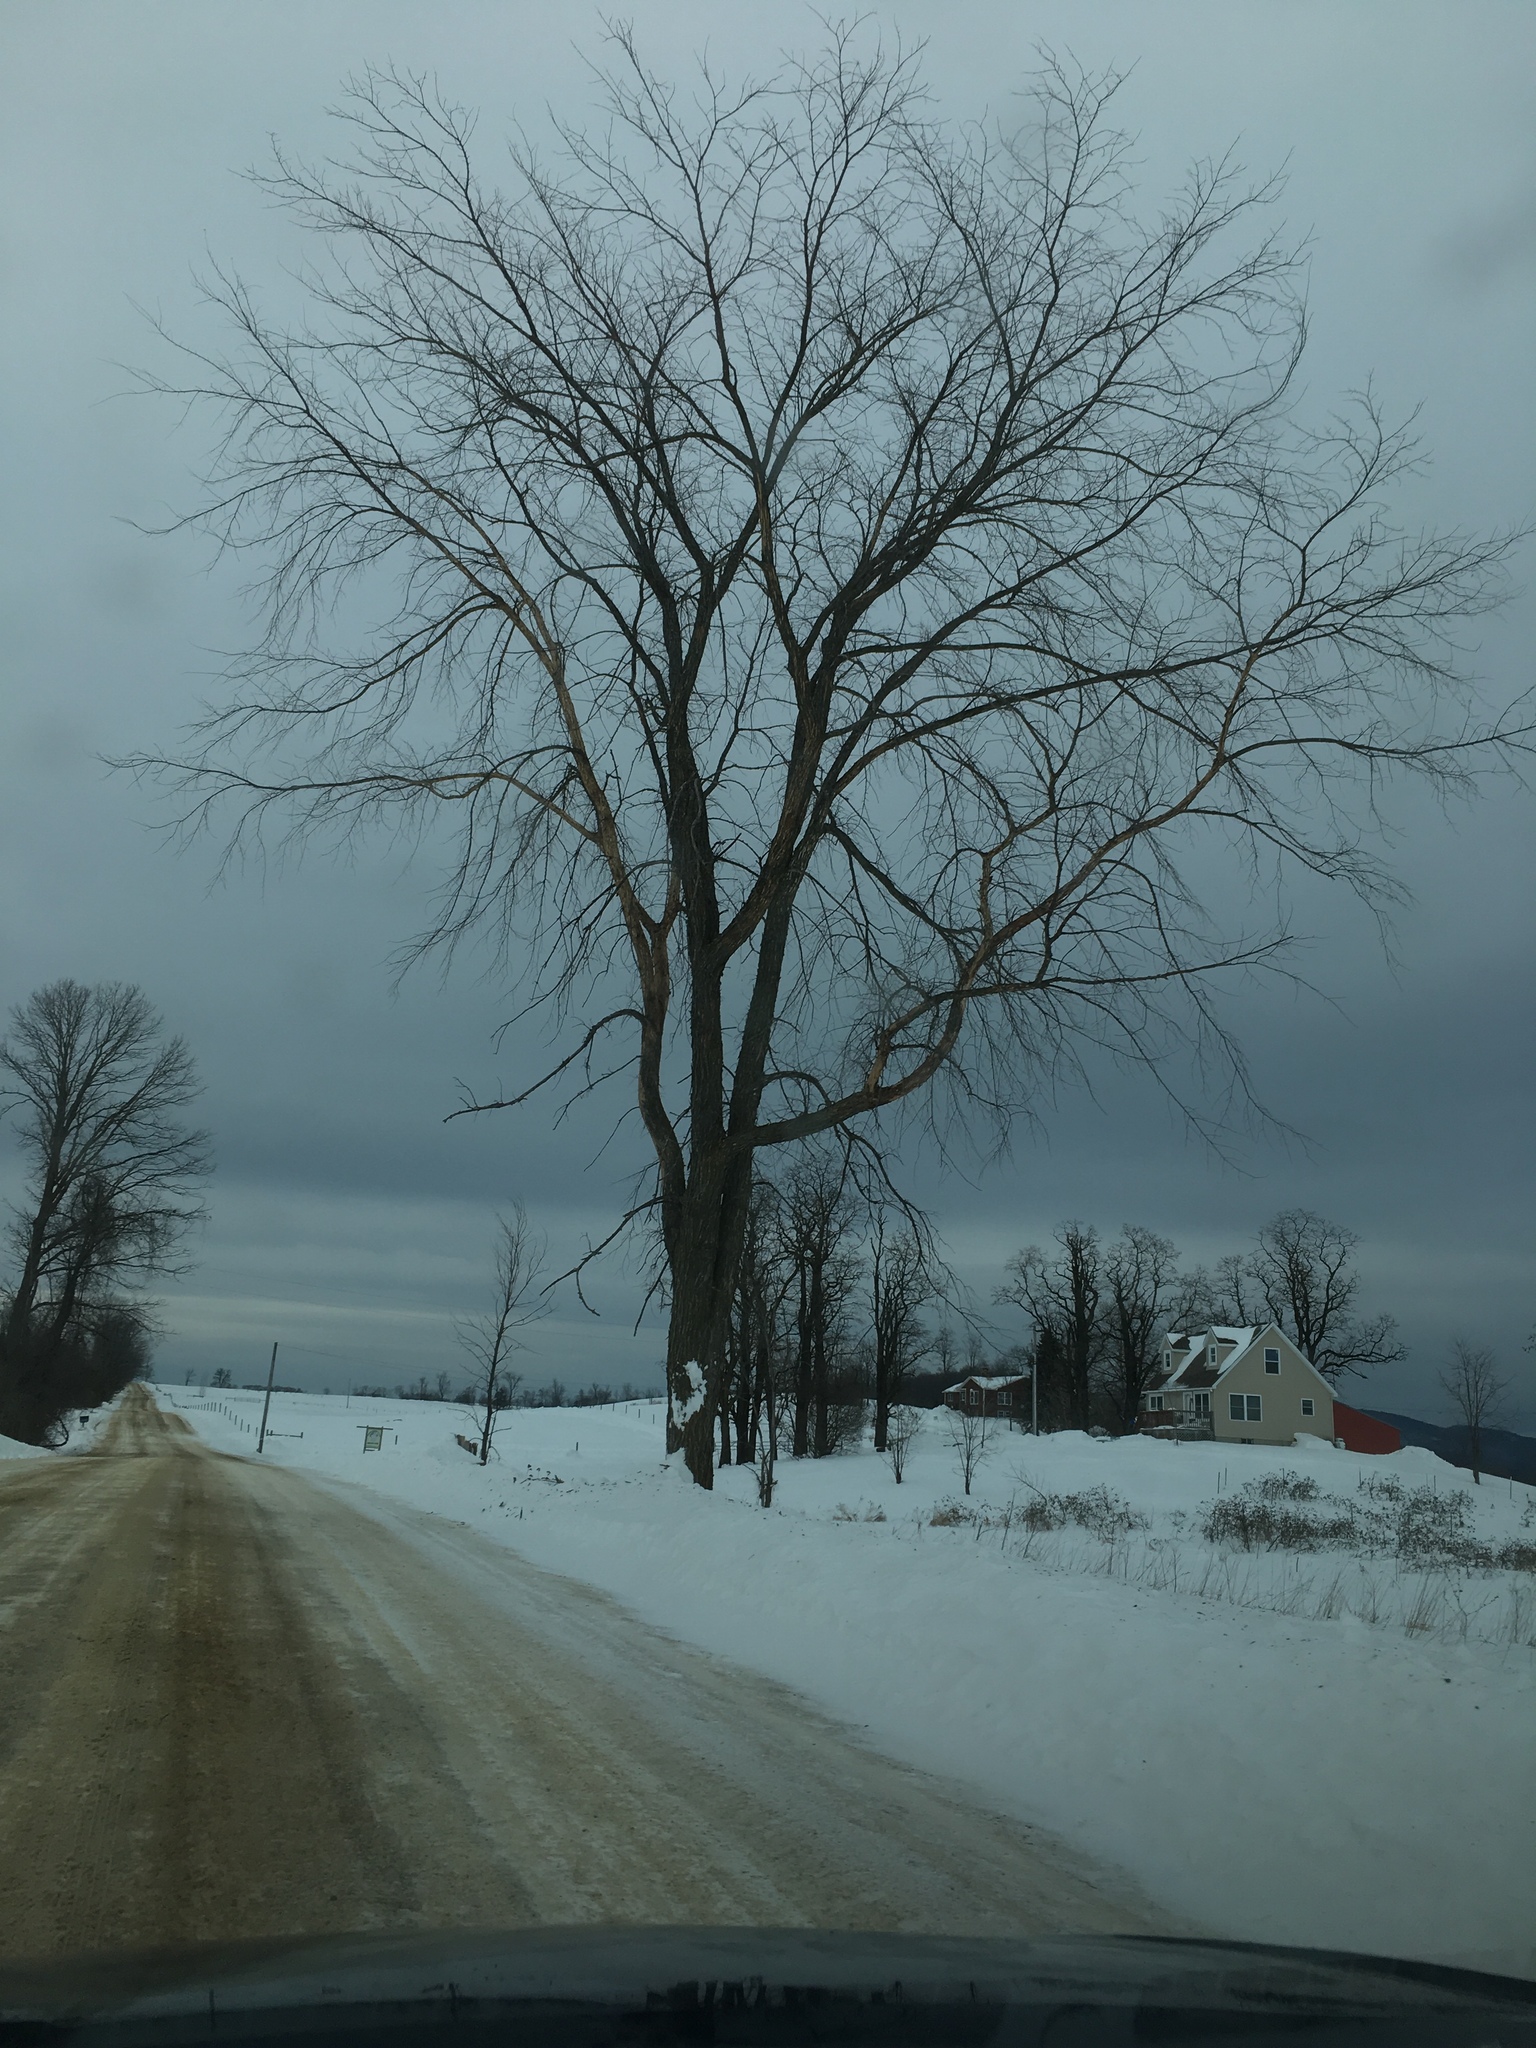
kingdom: Plantae
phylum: Tracheophyta
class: Magnoliopsida
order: Rosales
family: Ulmaceae
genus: Ulmus
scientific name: Ulmus americana
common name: American elm
